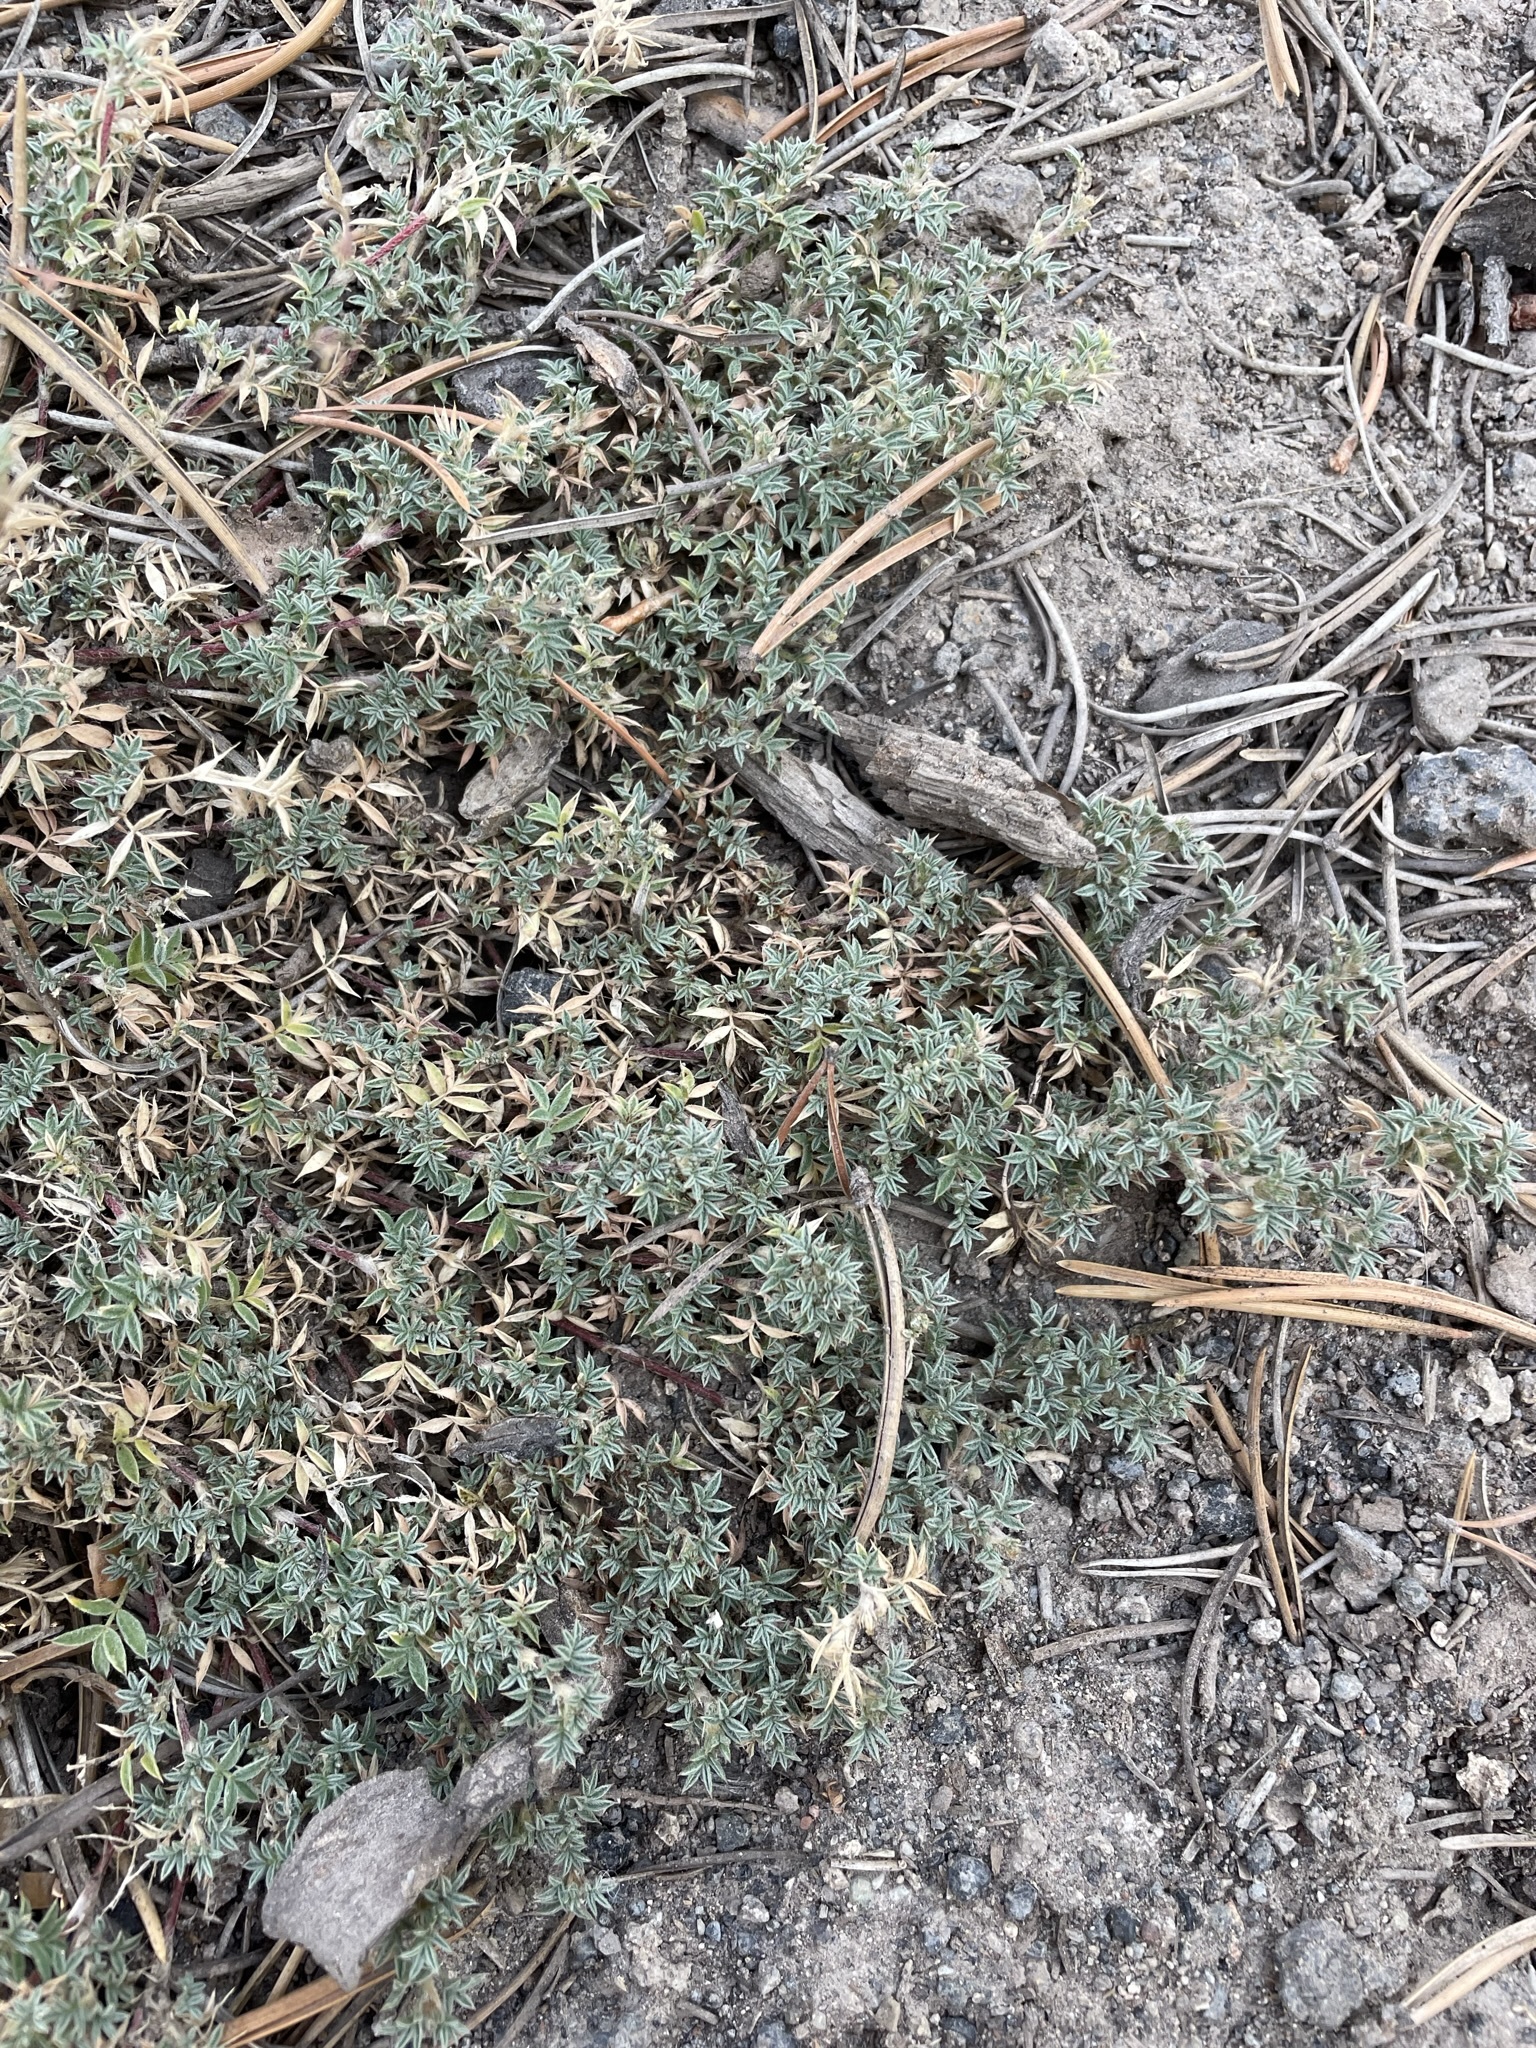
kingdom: Plantae
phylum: Tracheophyta
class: Magnoliopsida
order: Fabales
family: Fabaceae
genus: Astragalus
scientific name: Astragalus kentrophyta
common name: Prickly milk-vetch
